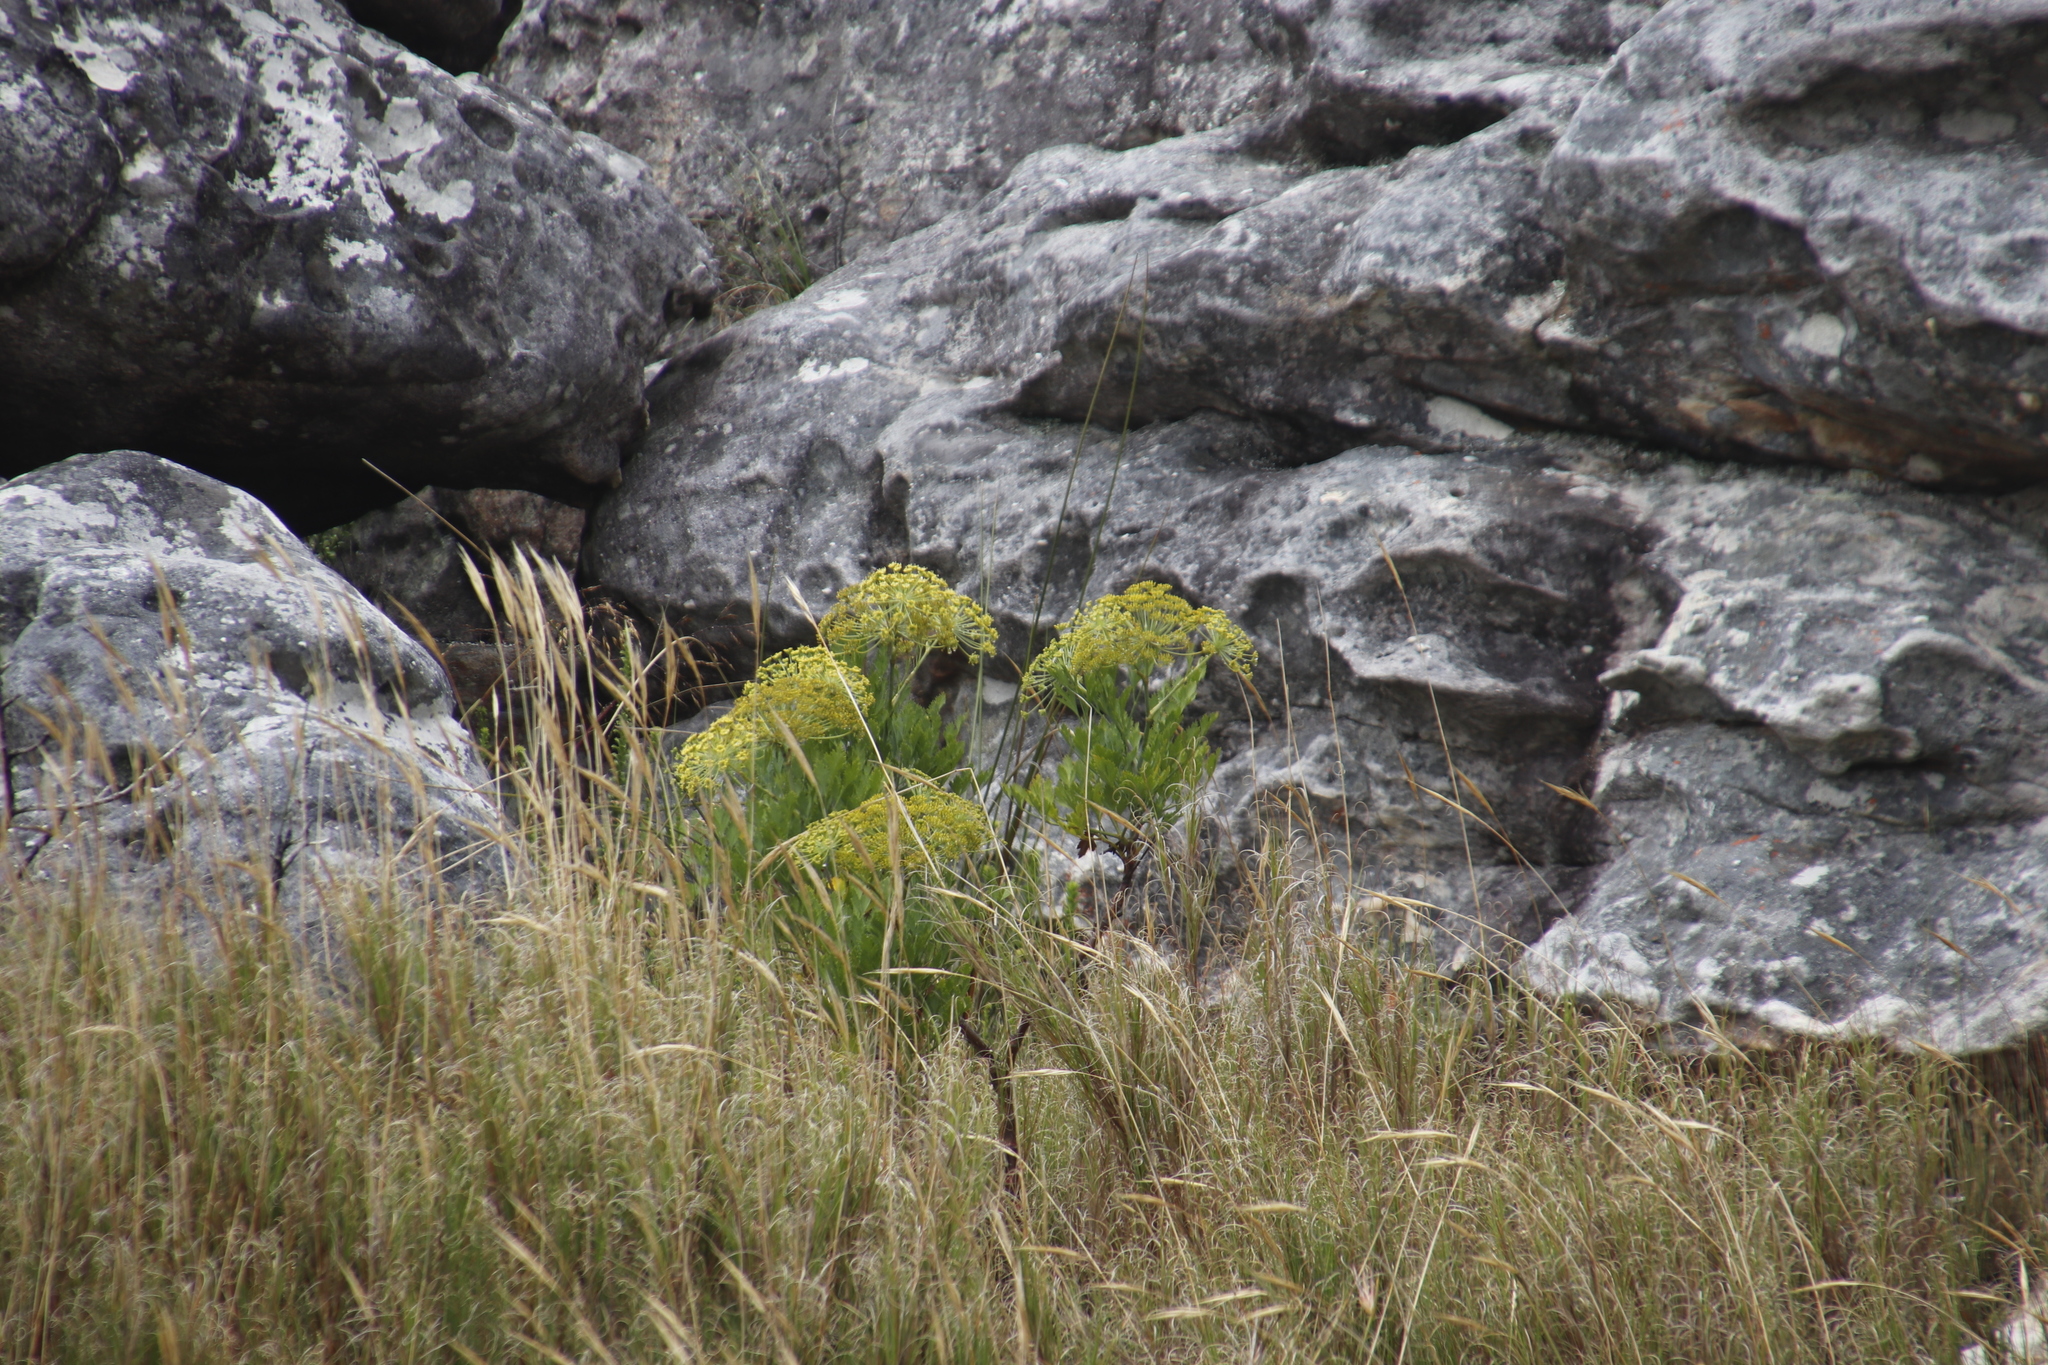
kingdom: Plantae
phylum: Tracheophyta
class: Magnoliopsida
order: Apiales
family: Apiaceae
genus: Notobubon
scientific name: Notobubon galbanum
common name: Blisterbush
